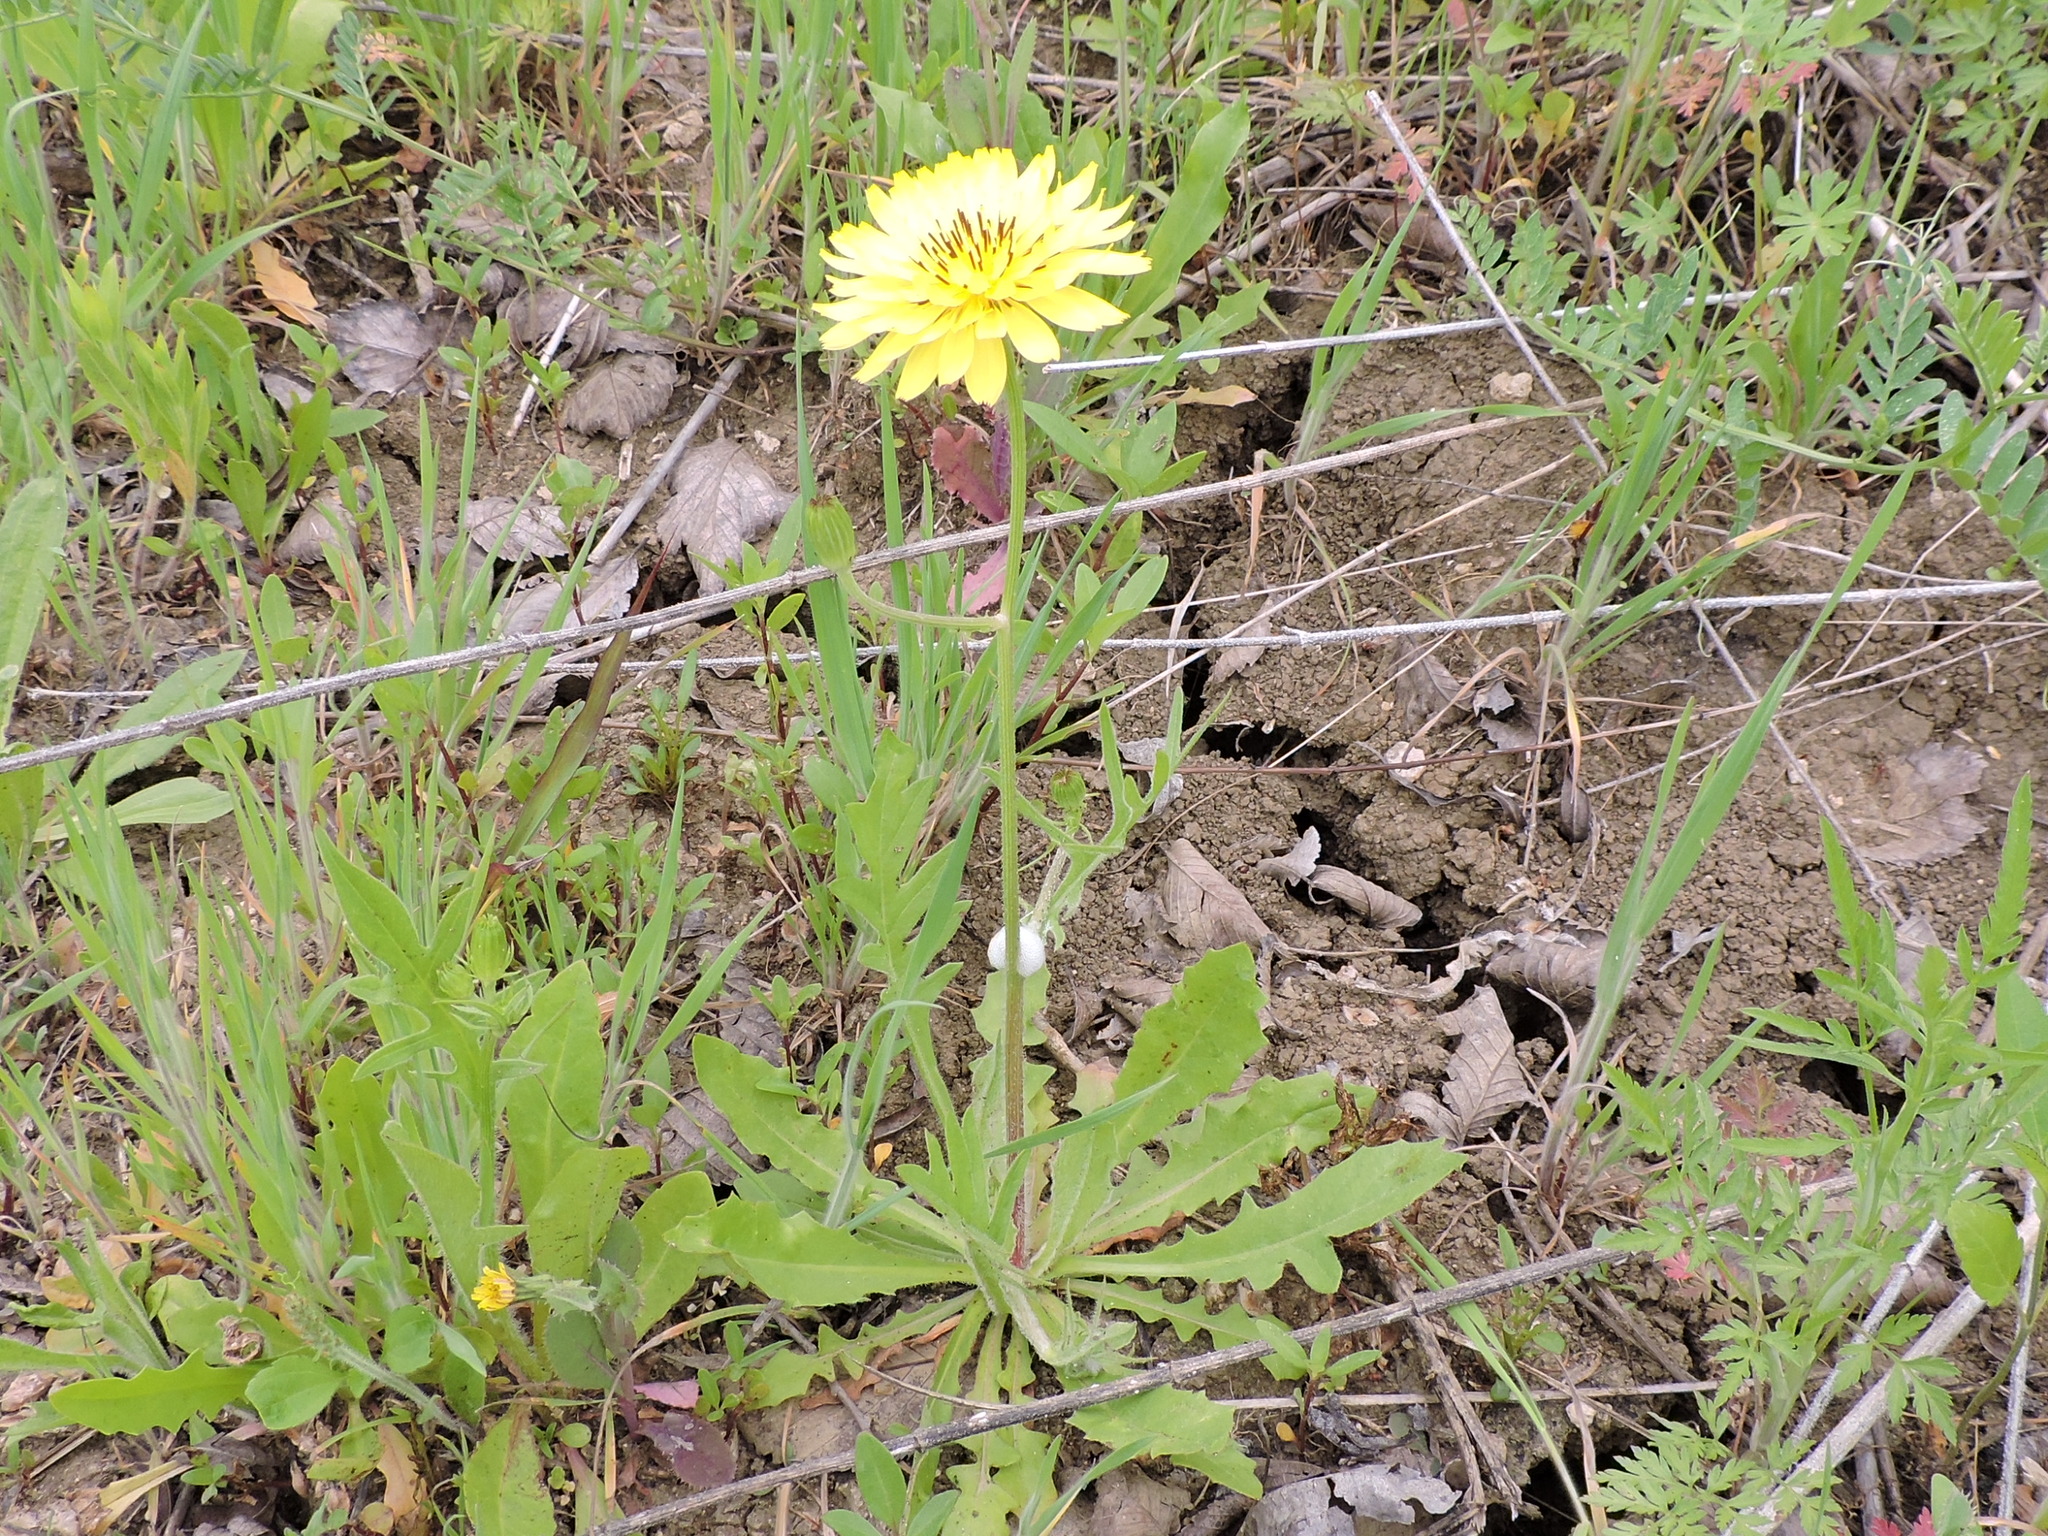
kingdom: Plantae
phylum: Tracheophyta
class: Magnoliopsida
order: Asterales
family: Asteraceae
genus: Pyrrhopappus
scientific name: Pyrrhopappus pauciflorus
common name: Texas false dandelion
